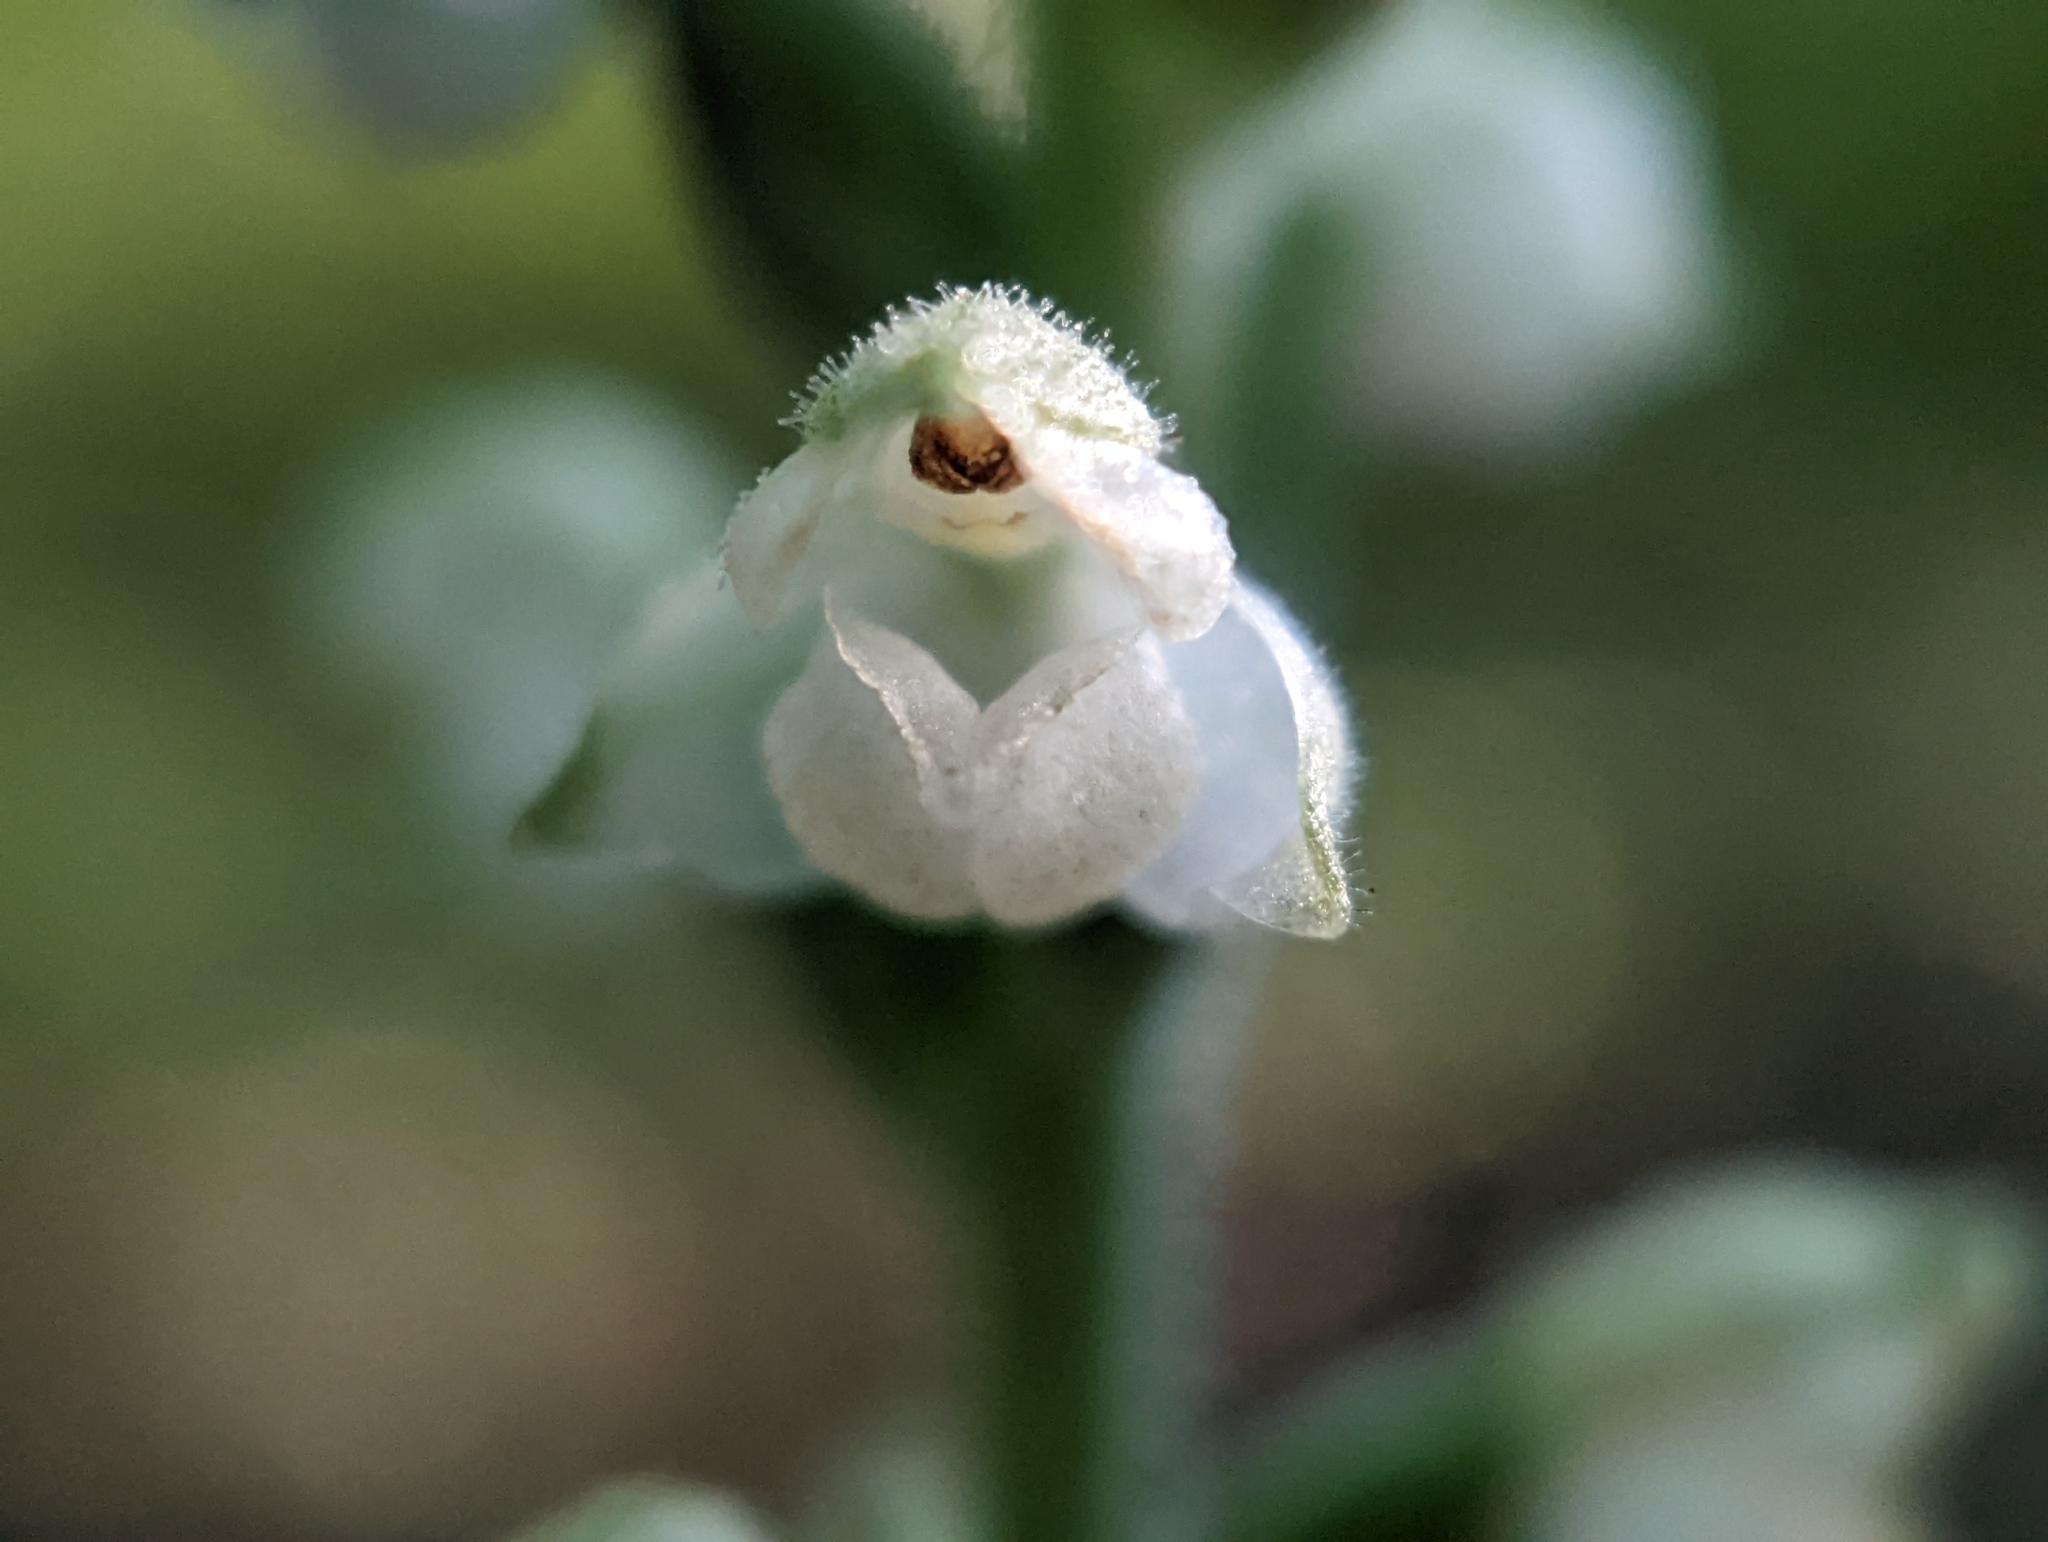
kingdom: Plantae
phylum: Tracheophyta
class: Liliopsida
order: Asparagales
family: Orchidaceae
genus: Goodyera
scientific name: Goodyera pubescens
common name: Downy rattlesnake-plantain
